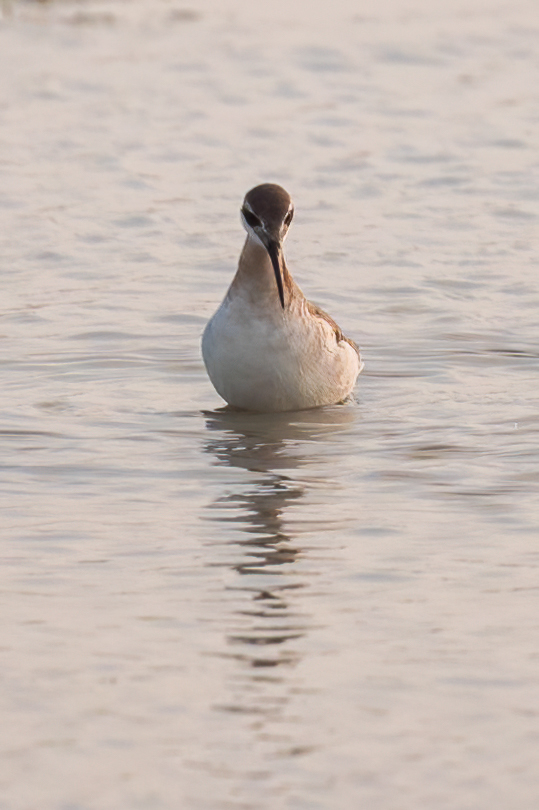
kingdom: Animalia
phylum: Chordata
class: Aves
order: Charadriiformes
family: Scolopacidae
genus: Phalaropus
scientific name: Phalaropus tricolor
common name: Wilson's phalarope
